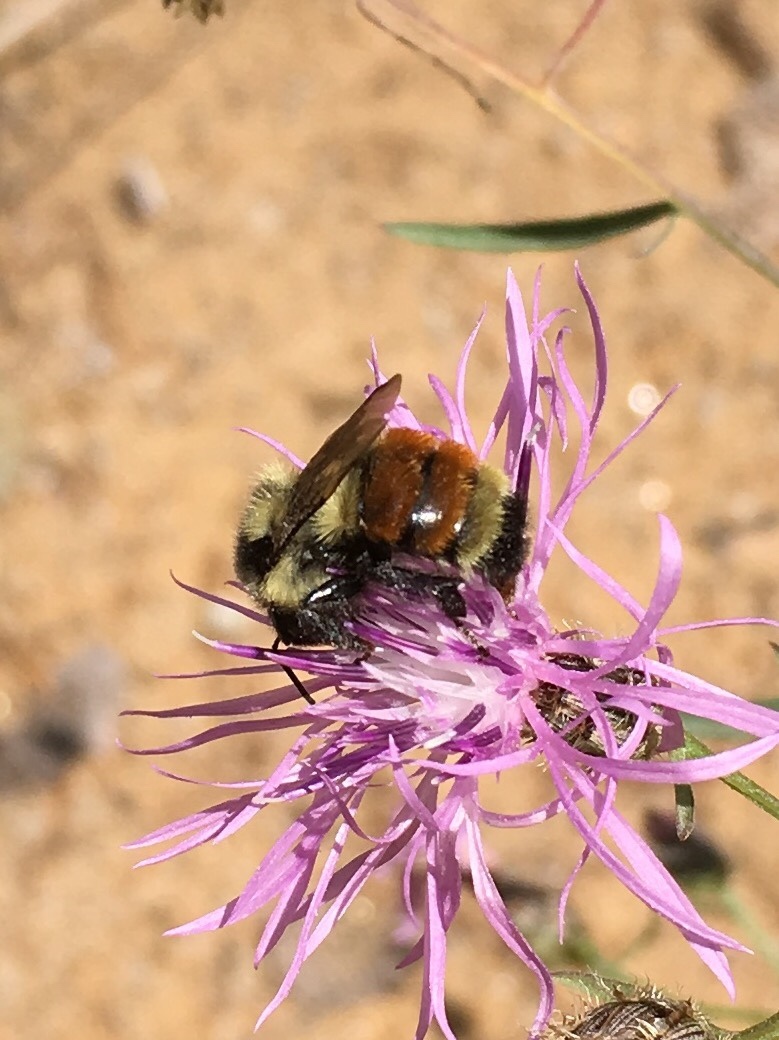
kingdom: Animalia
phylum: Arthropoda
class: Insecta
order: Hymenoptera
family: Apidae
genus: Bombus
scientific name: Bombus ternarius
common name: Tri-colored bumble bee
